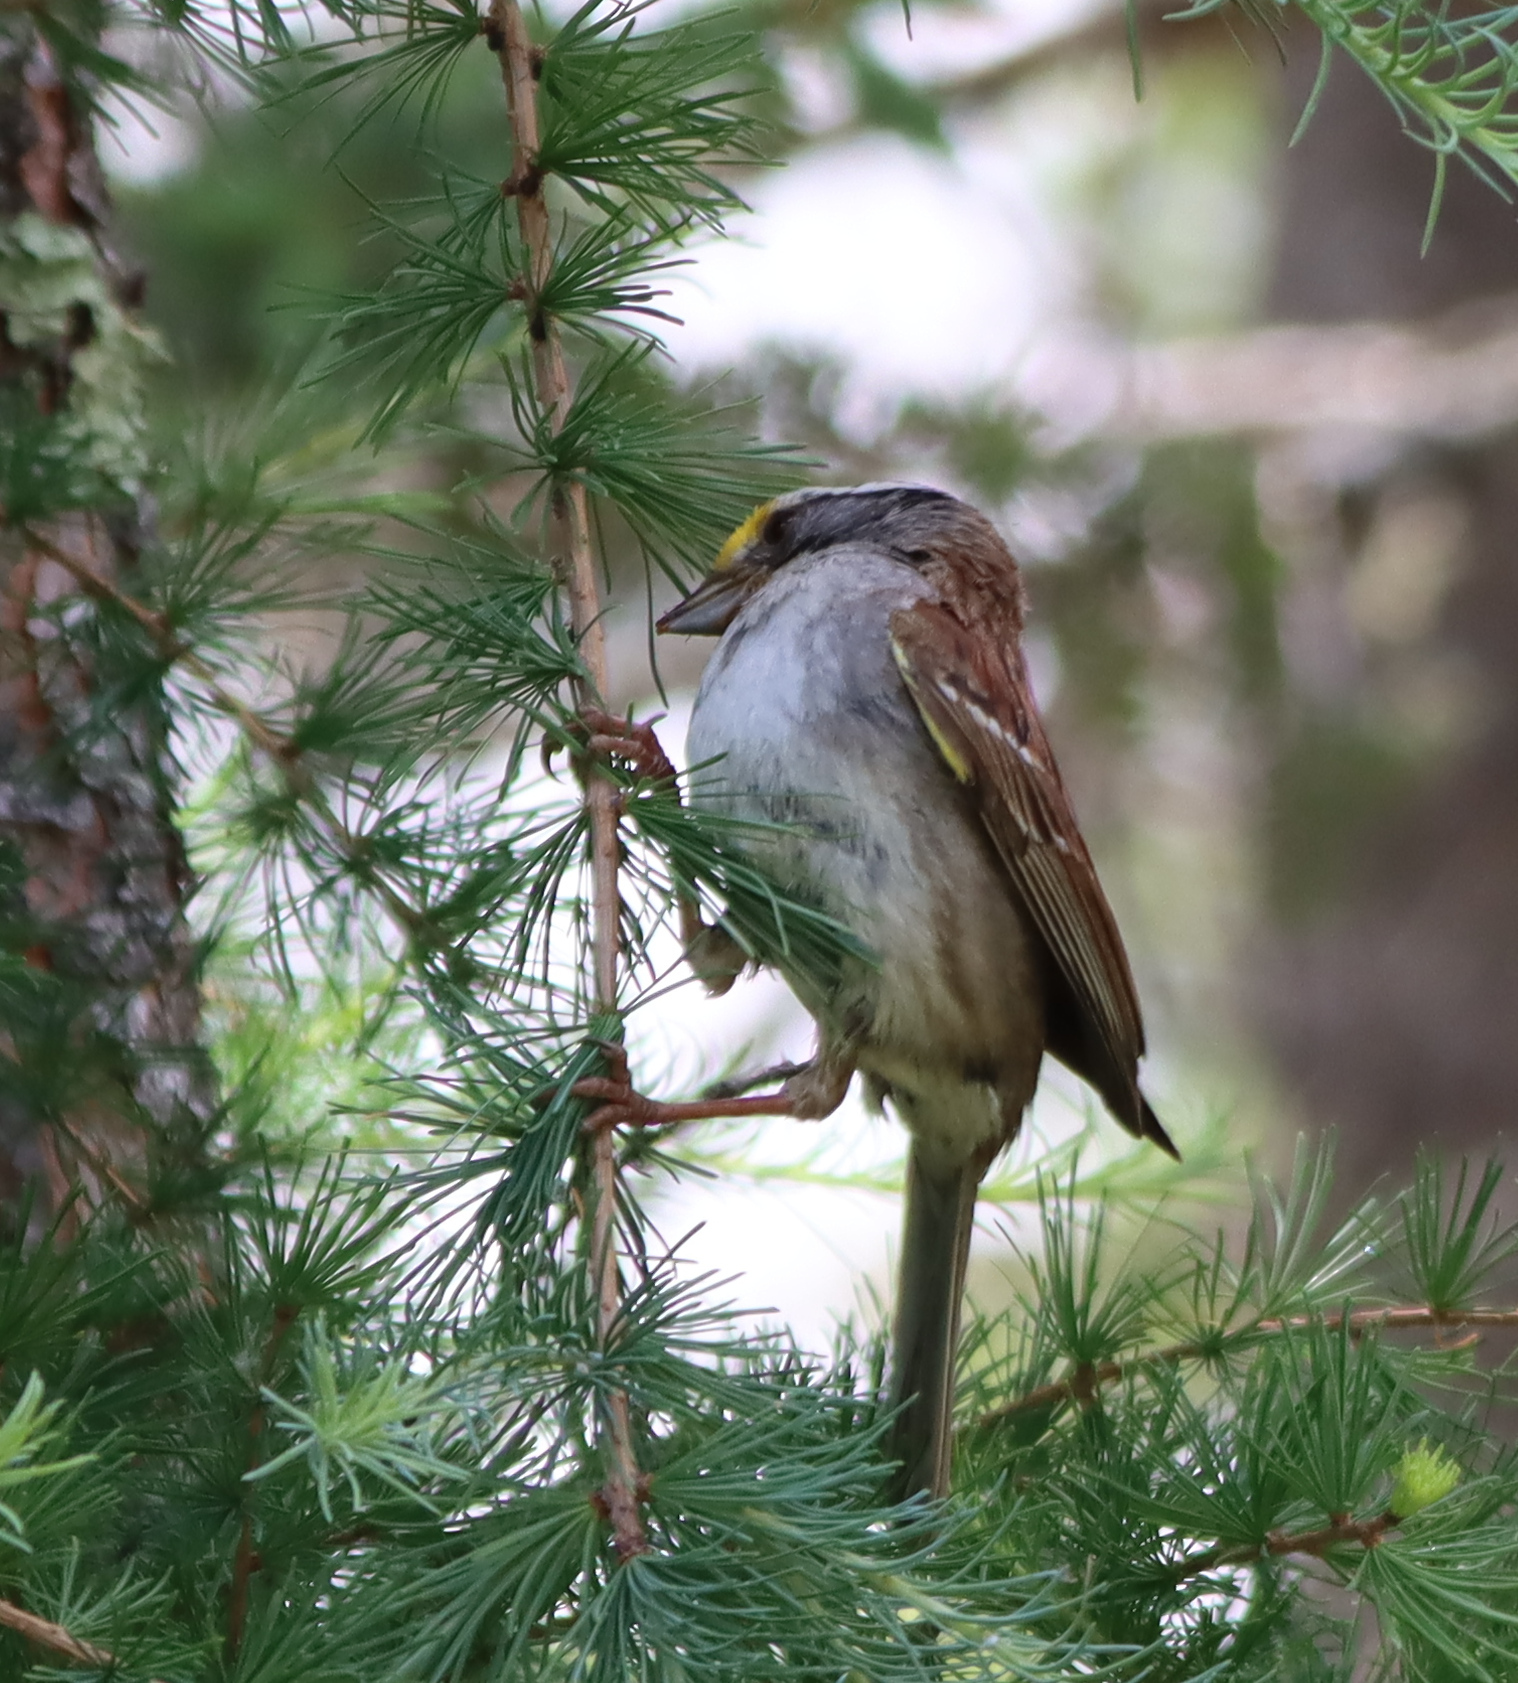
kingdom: Animalia
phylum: Chordata
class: Aves
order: Passeriformes
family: Passerellidae
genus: Zonotrichia
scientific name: Zonotrichia albicollis
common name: White-throated sparrow
